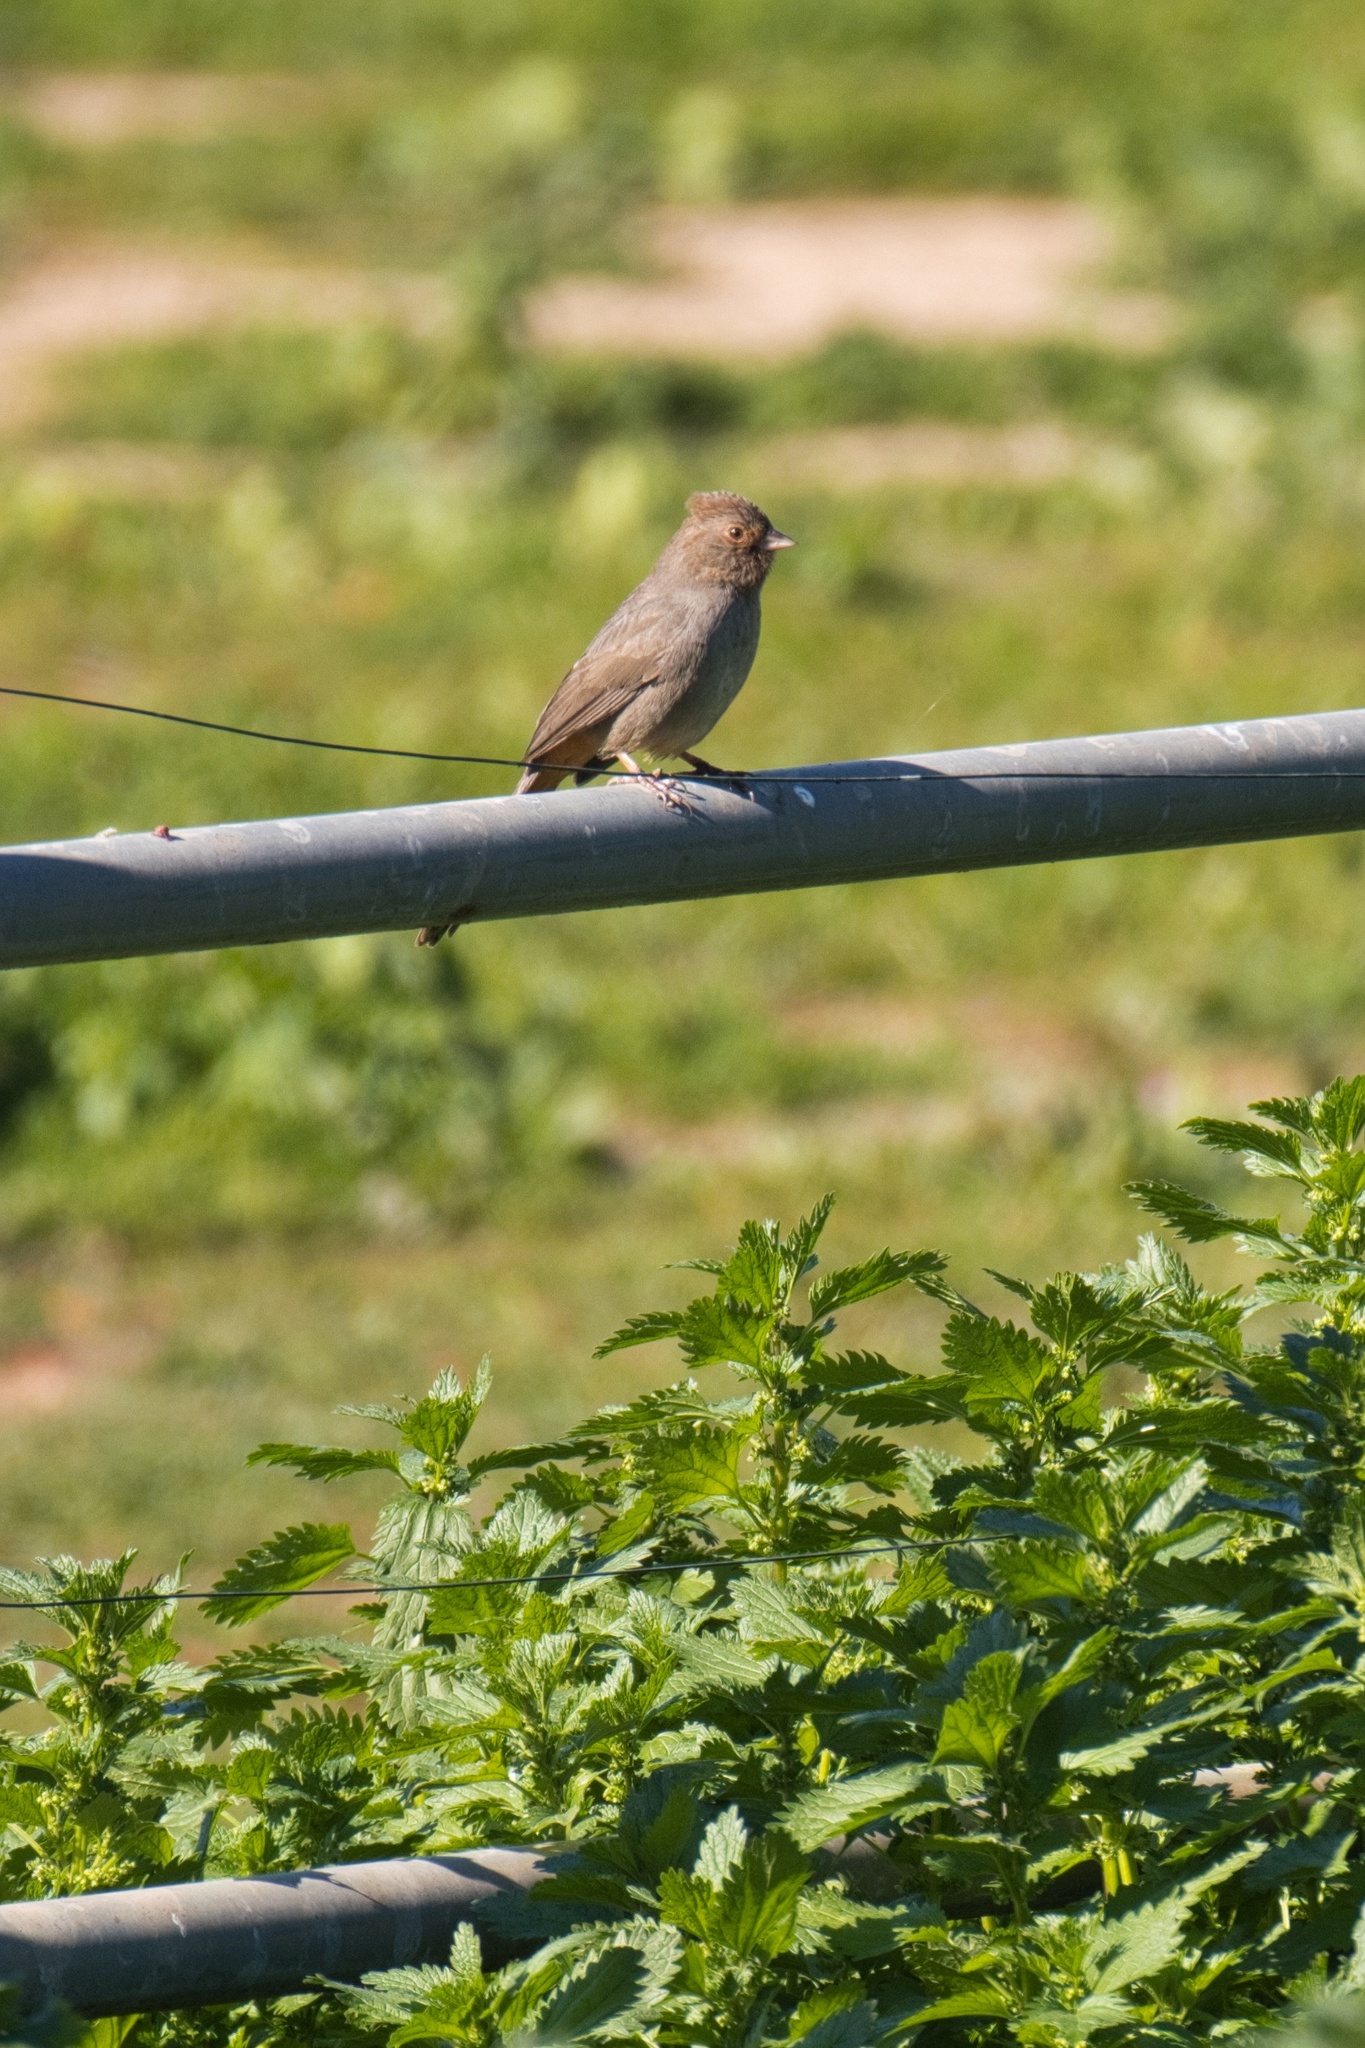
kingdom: Animalia
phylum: Chordata
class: Aves
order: Passeriformes
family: Passerellidae
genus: Melozone
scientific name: Melozone crissalis
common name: California towhee
